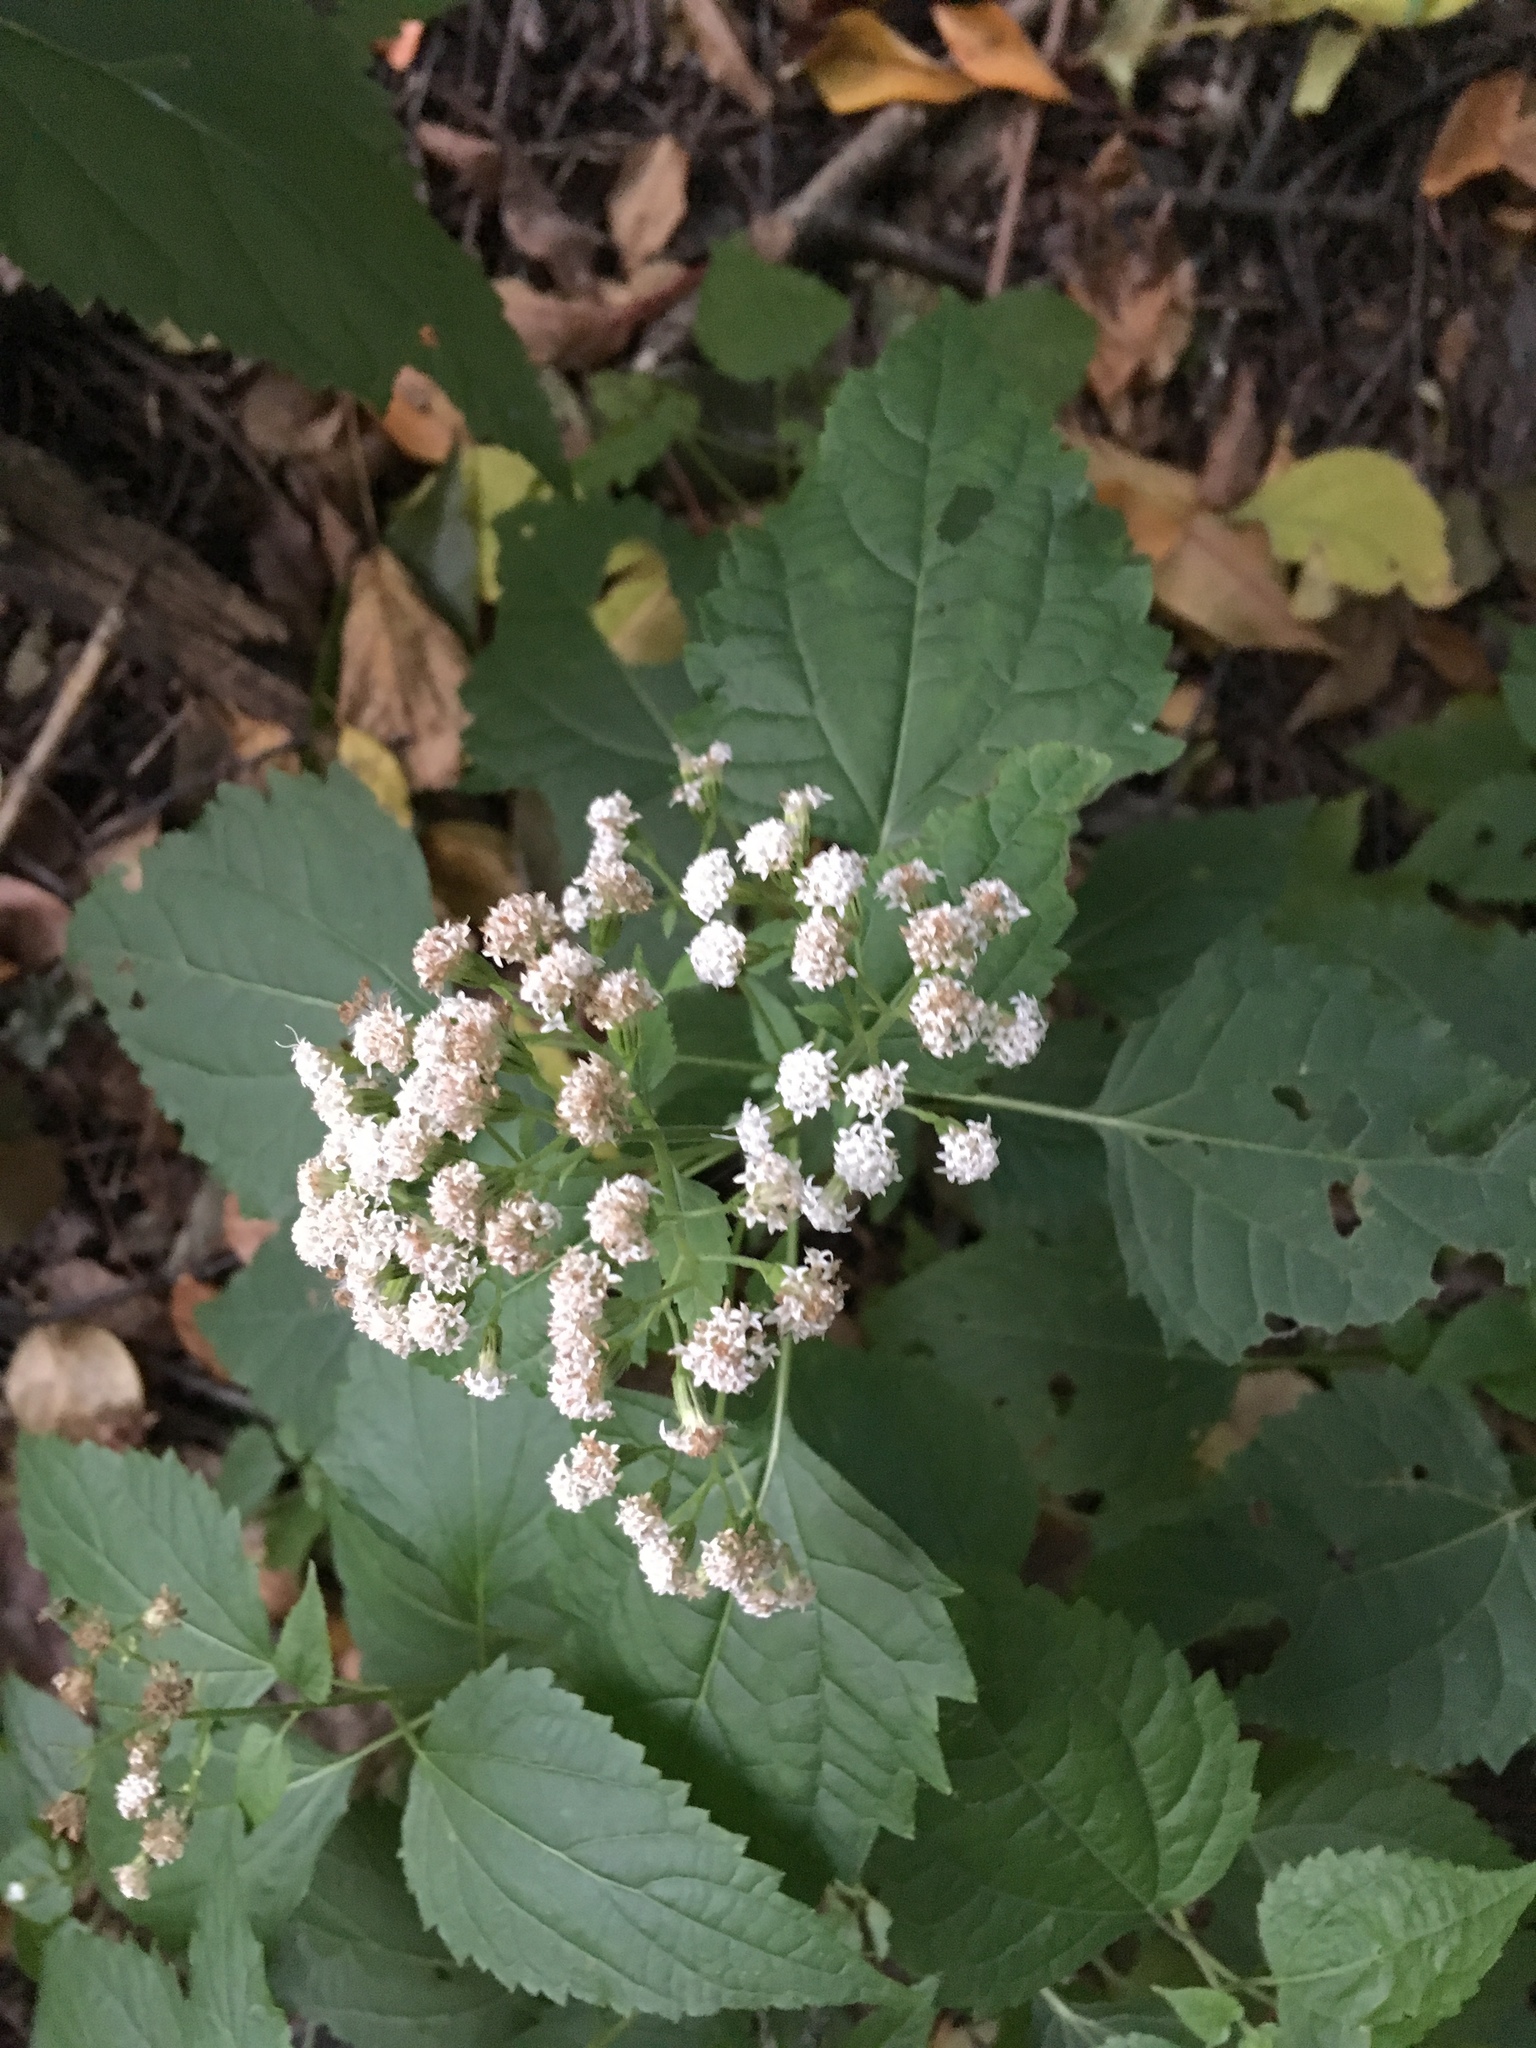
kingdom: Plantae
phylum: Tracheophyta
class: Magnoliopsida
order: Asterales
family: Asteraceae
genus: Ageratina
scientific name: Ageratina altissima
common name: White snakeroot
